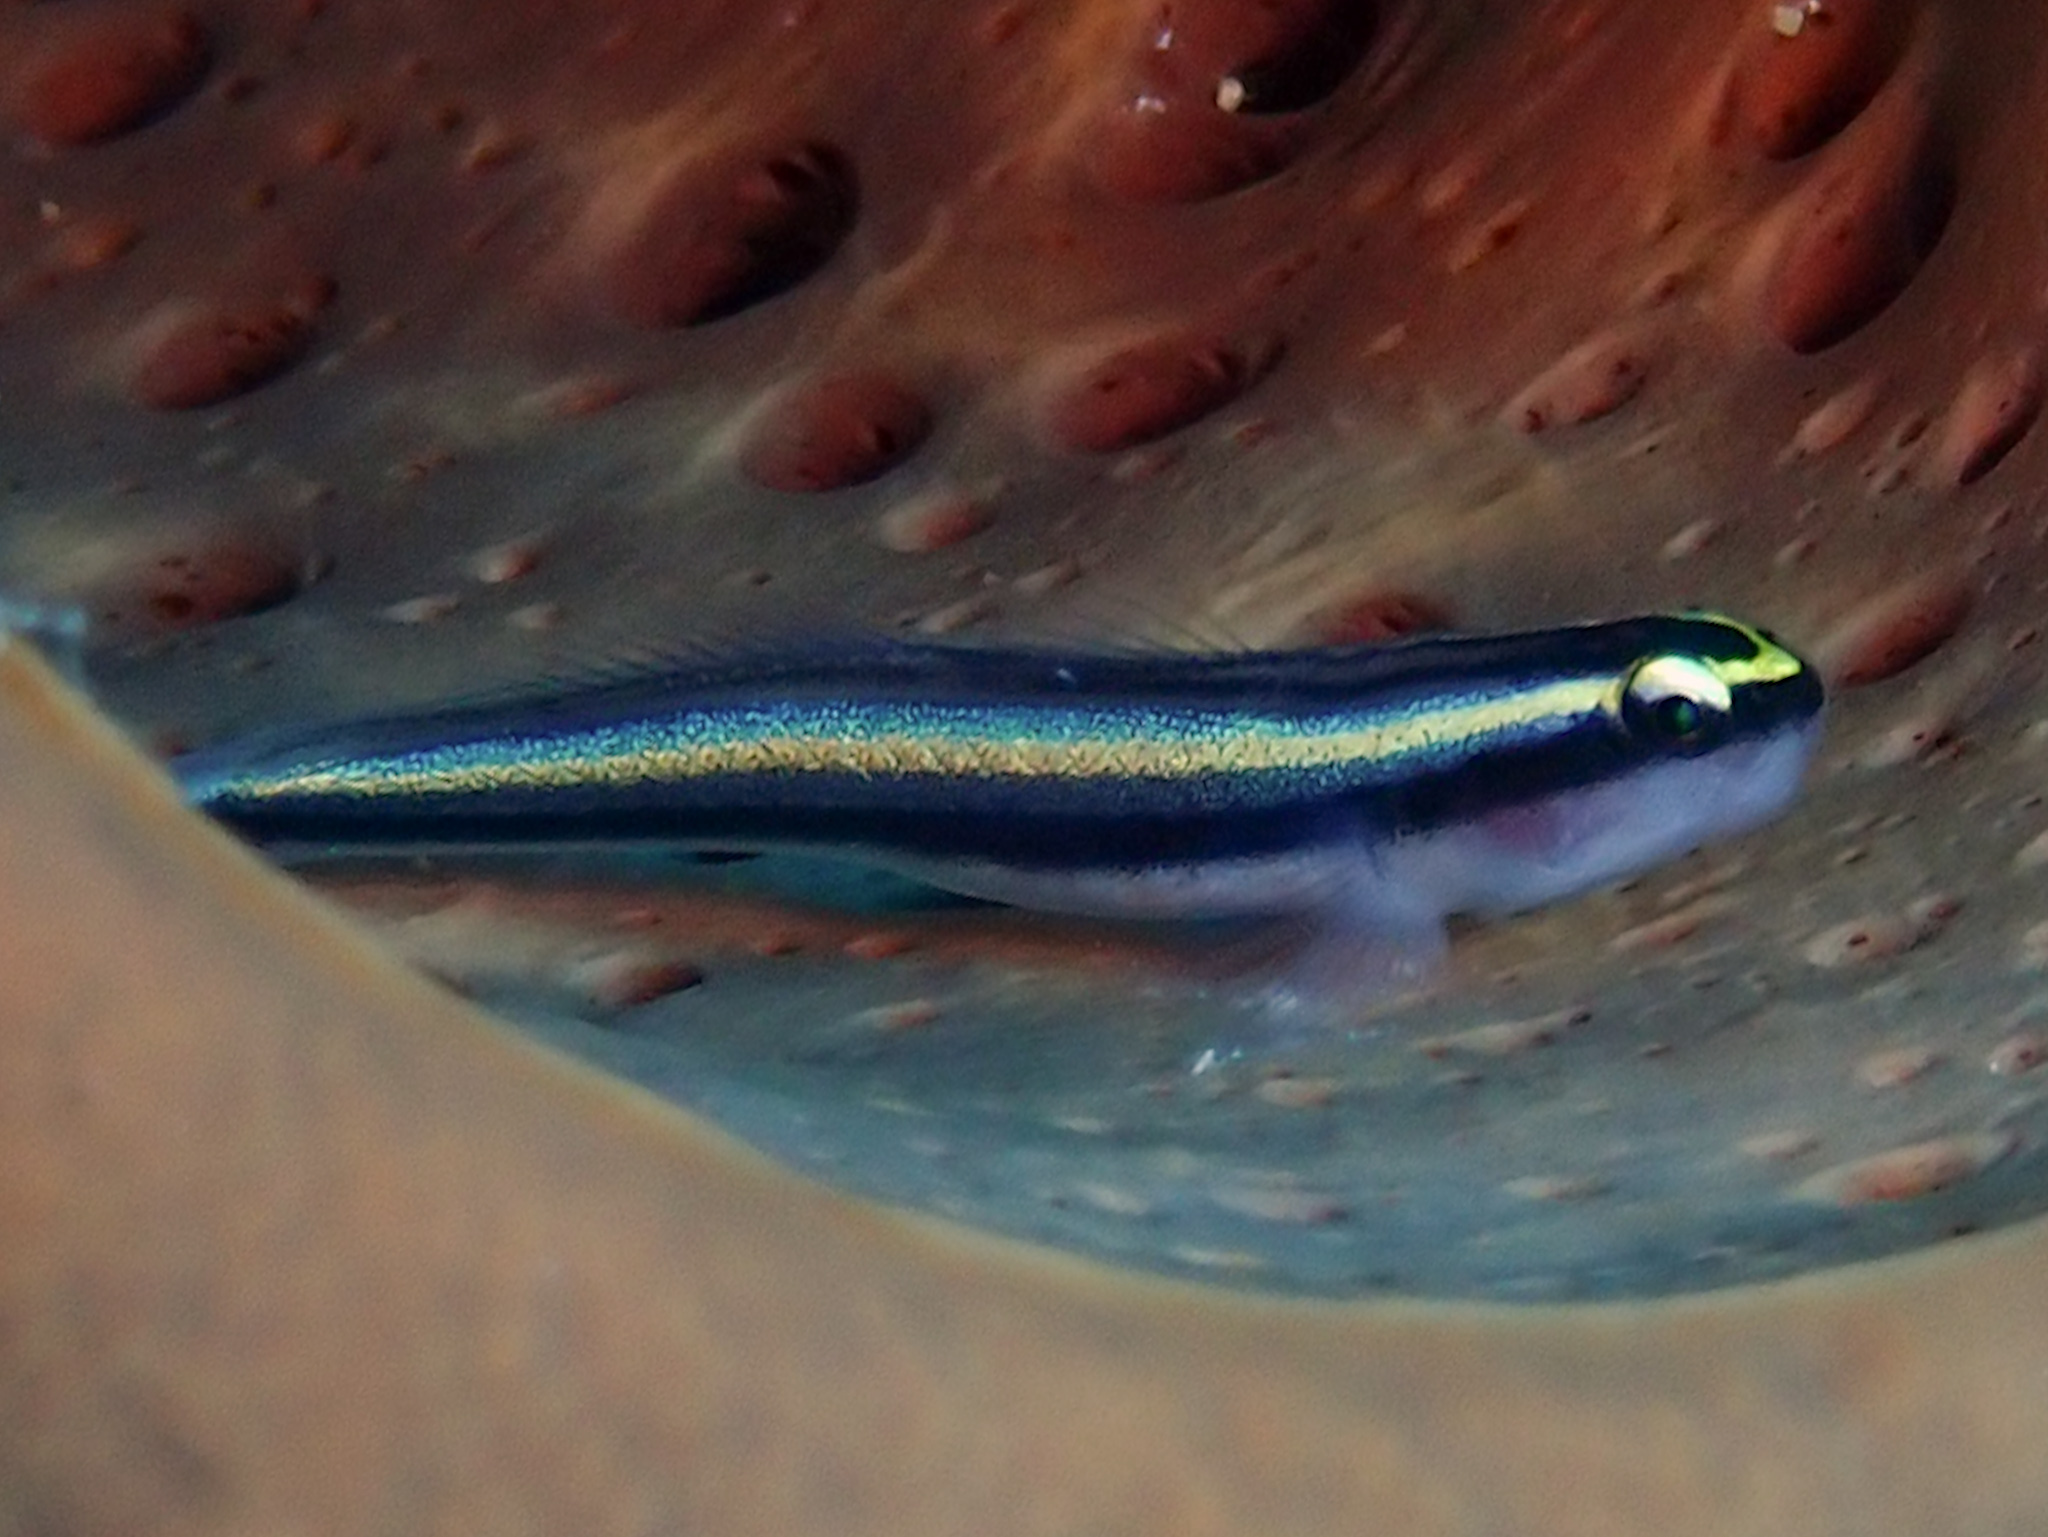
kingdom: Animalia
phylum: Chordata
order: Perciformes
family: Gobiidae
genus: Elacatinus
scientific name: Elacatinus cayman
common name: Cayman cleaner goby
